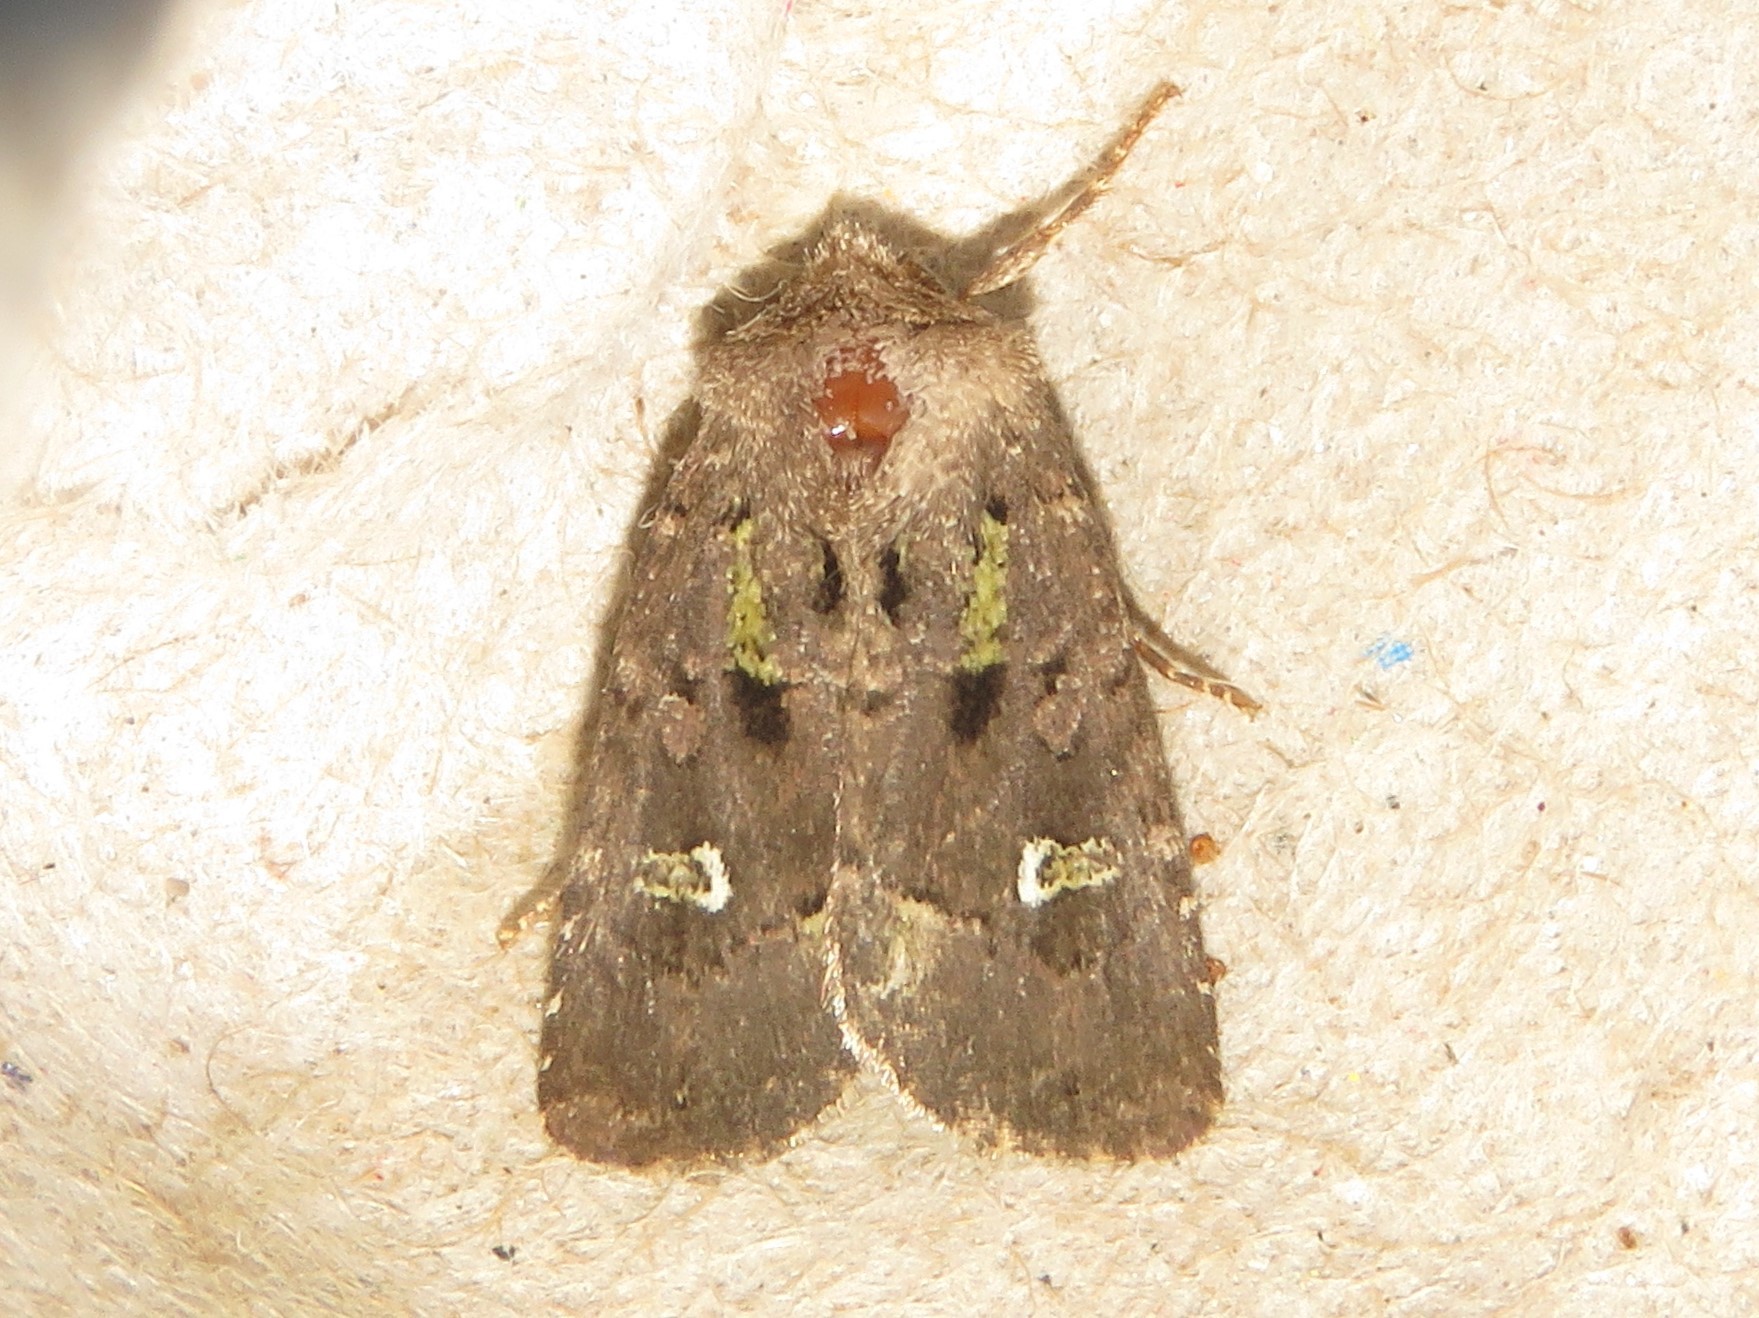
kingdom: Animalia
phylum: Arthropoda
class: Insecta
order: Lepidoptera
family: Noctuidae
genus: Lacinipolia
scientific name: Lacinipolia renigera
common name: Kidney-spotted minor
